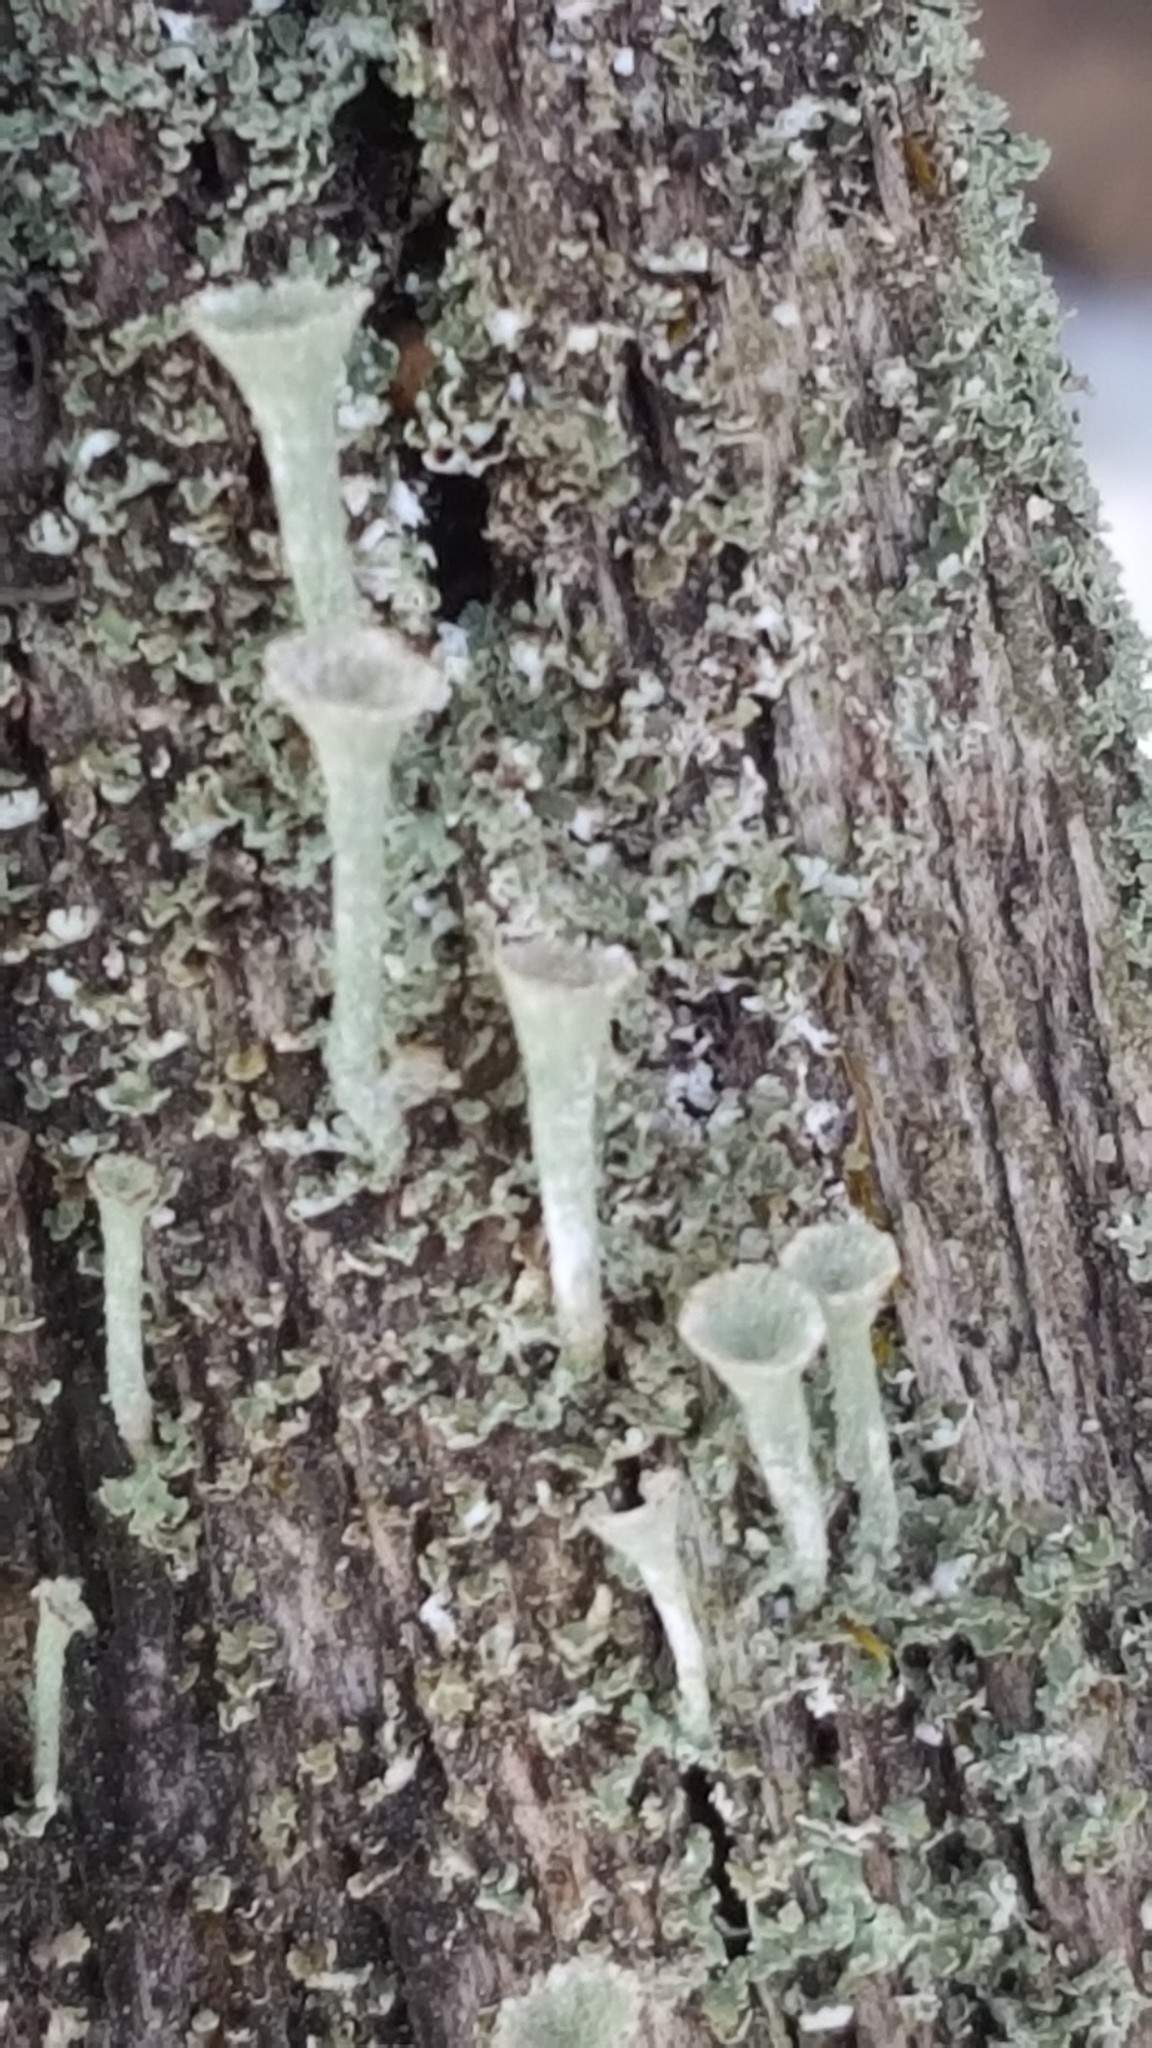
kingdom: Fungi
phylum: Ascomycota
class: Lecanoromycetes
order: Lecanorales
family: Cladoniaceae
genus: Cladonia
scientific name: Cladonia fimbriata
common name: Powdered trumpet lichen
